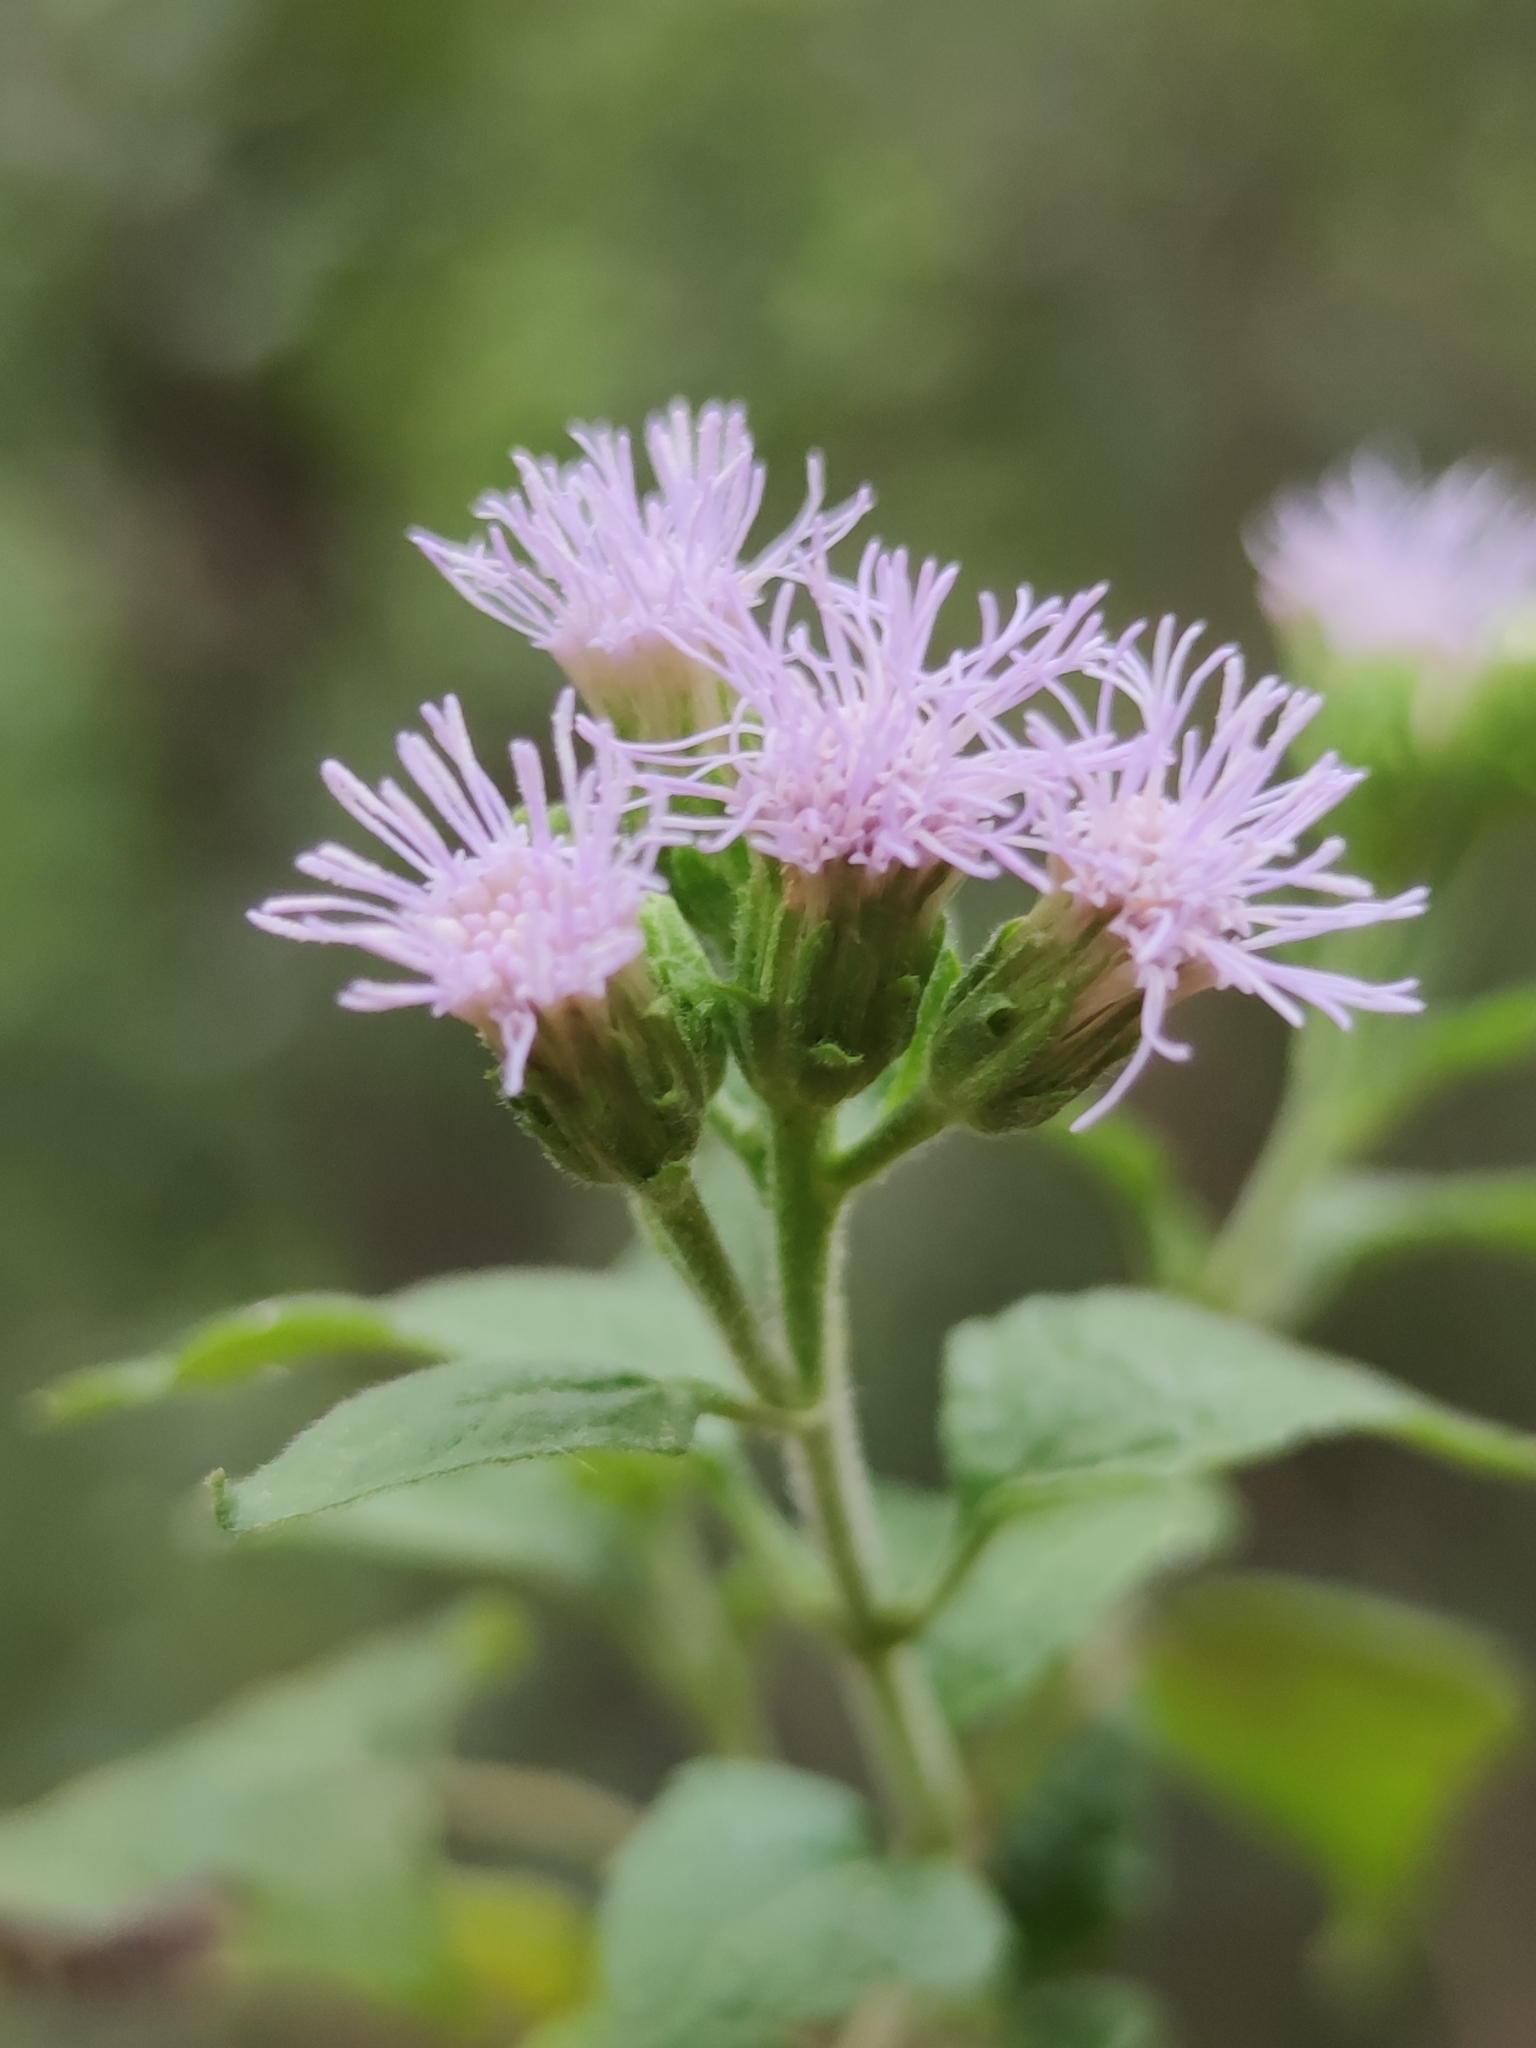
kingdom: Plantae
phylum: Tracheophyta
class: Magnoliopsida
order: Asterales
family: Asteraceae
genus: Tamaulipa
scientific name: Tamaulipa azurea
